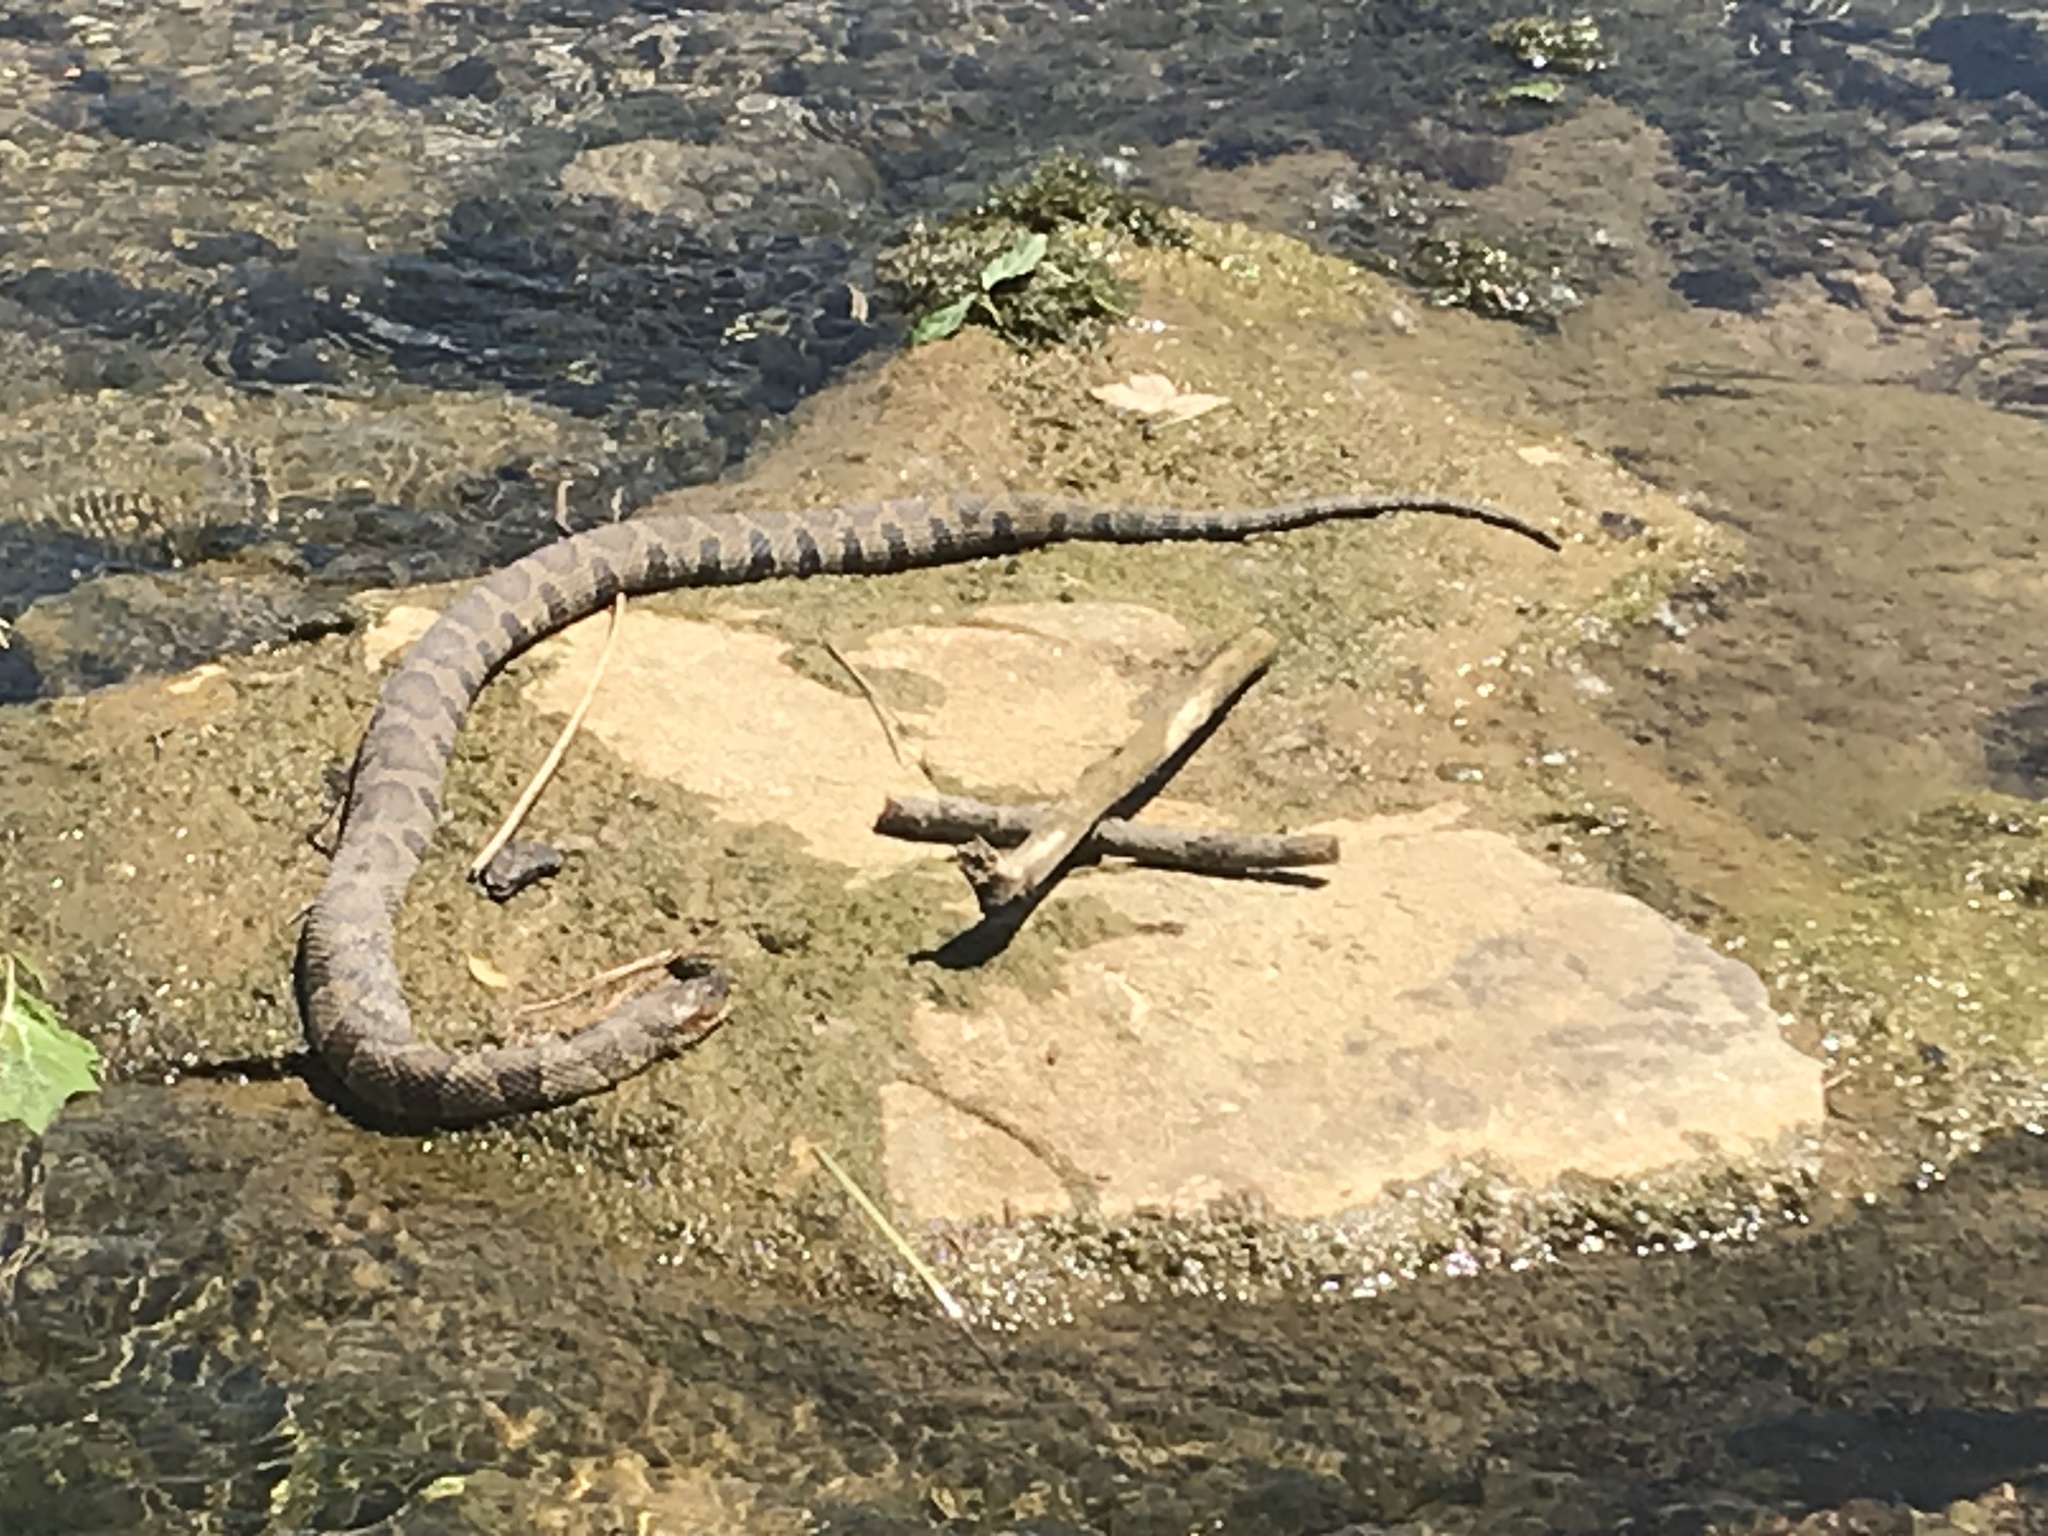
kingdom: Animalia
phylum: Chordata
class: Squamata
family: Colubridae
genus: Nerodia
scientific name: Nerodia sipedon
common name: Northern water snake
